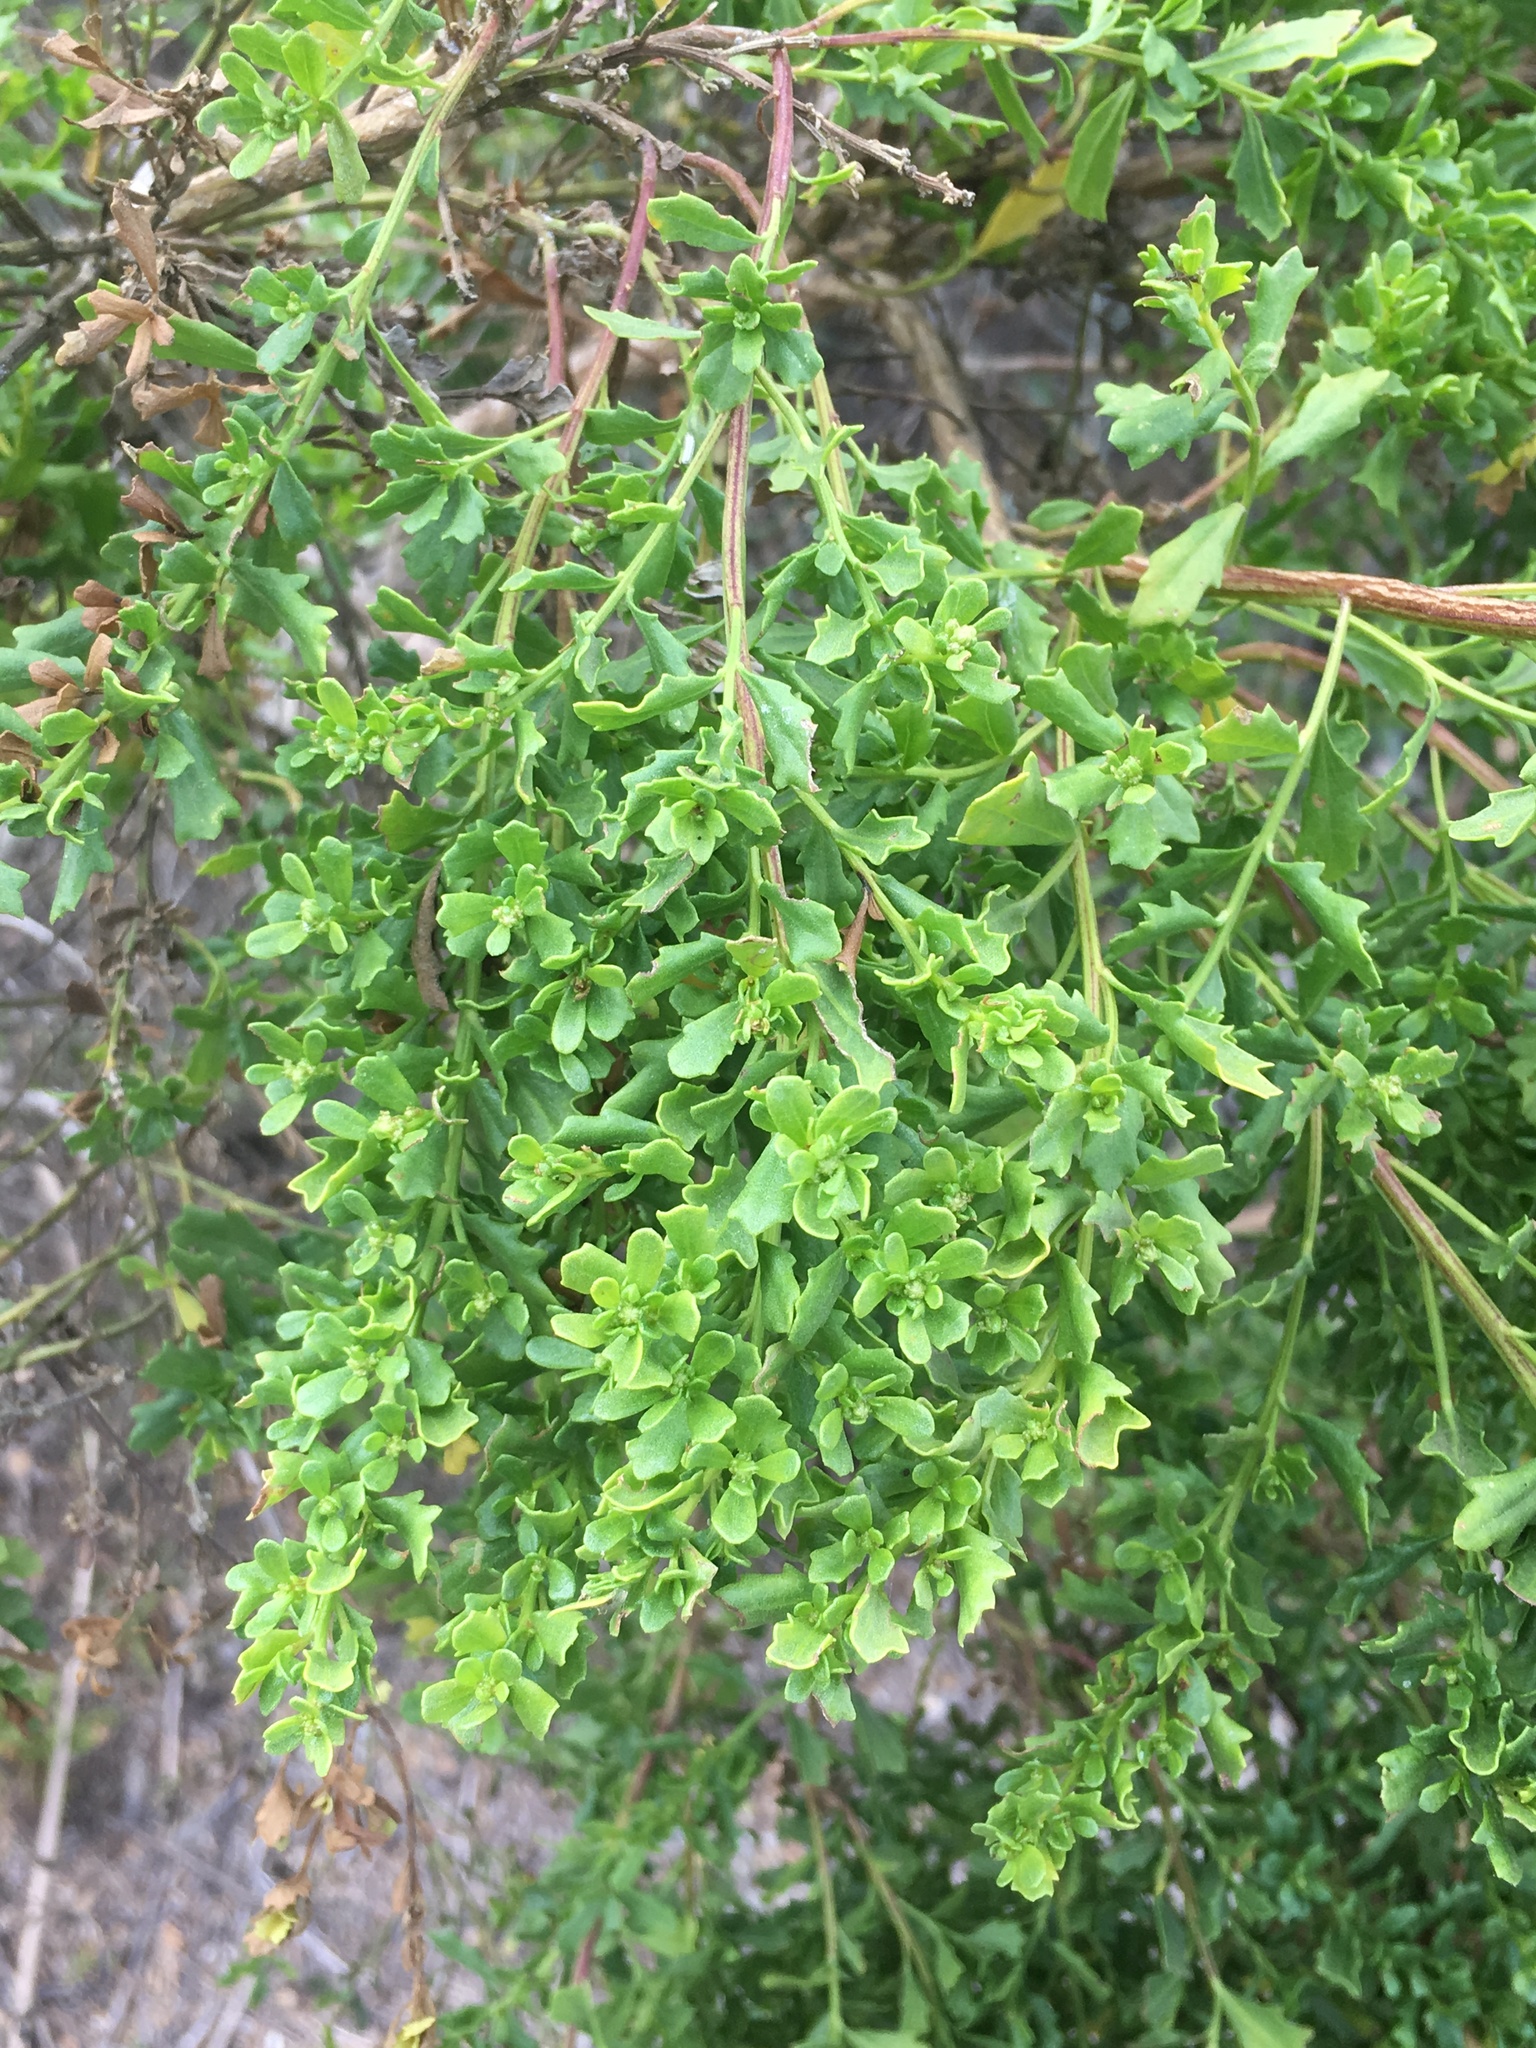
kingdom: Plantae
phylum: Tracheophyta
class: Magnoliopsida
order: Asterales
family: Asteraceae
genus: Baccharis
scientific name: Baccharis pilularis
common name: Coyotebrush
